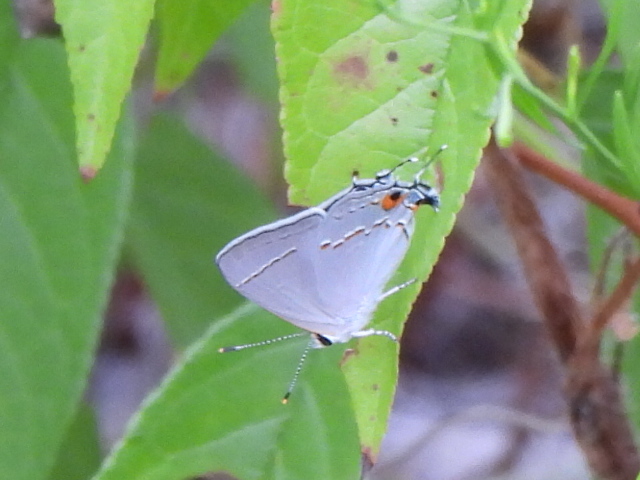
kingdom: Animalia
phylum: Arthropoda
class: Insecta
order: Lepidoptera
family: Lycaenidae
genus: Strymon
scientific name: Strymon melinus
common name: Gray hairstreak
